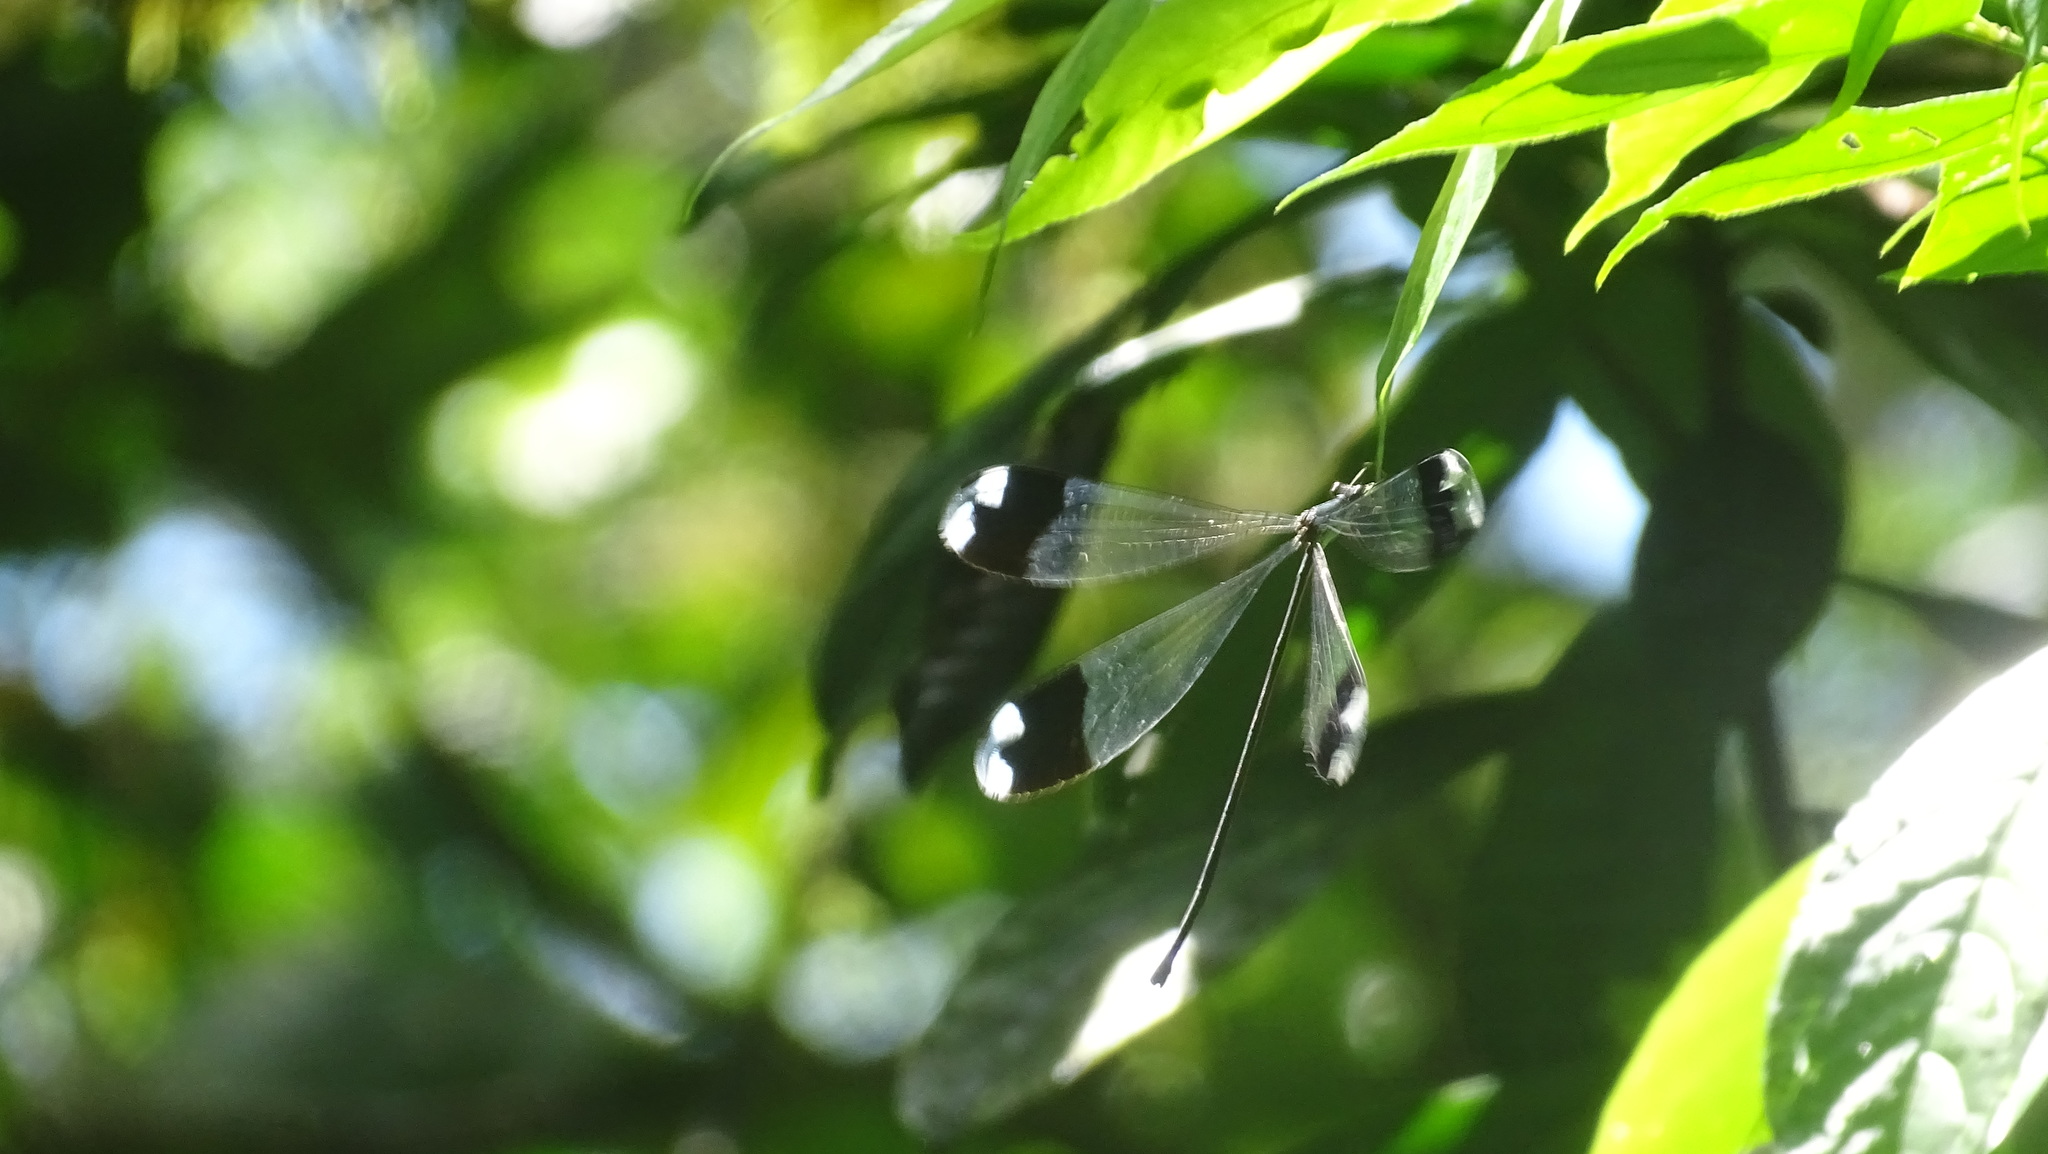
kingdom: Animalia
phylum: Arthropoda
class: Insecta
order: Odonata
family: Coenagrionidae
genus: Megaloprepus
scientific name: Megaloprepus caerulatus
